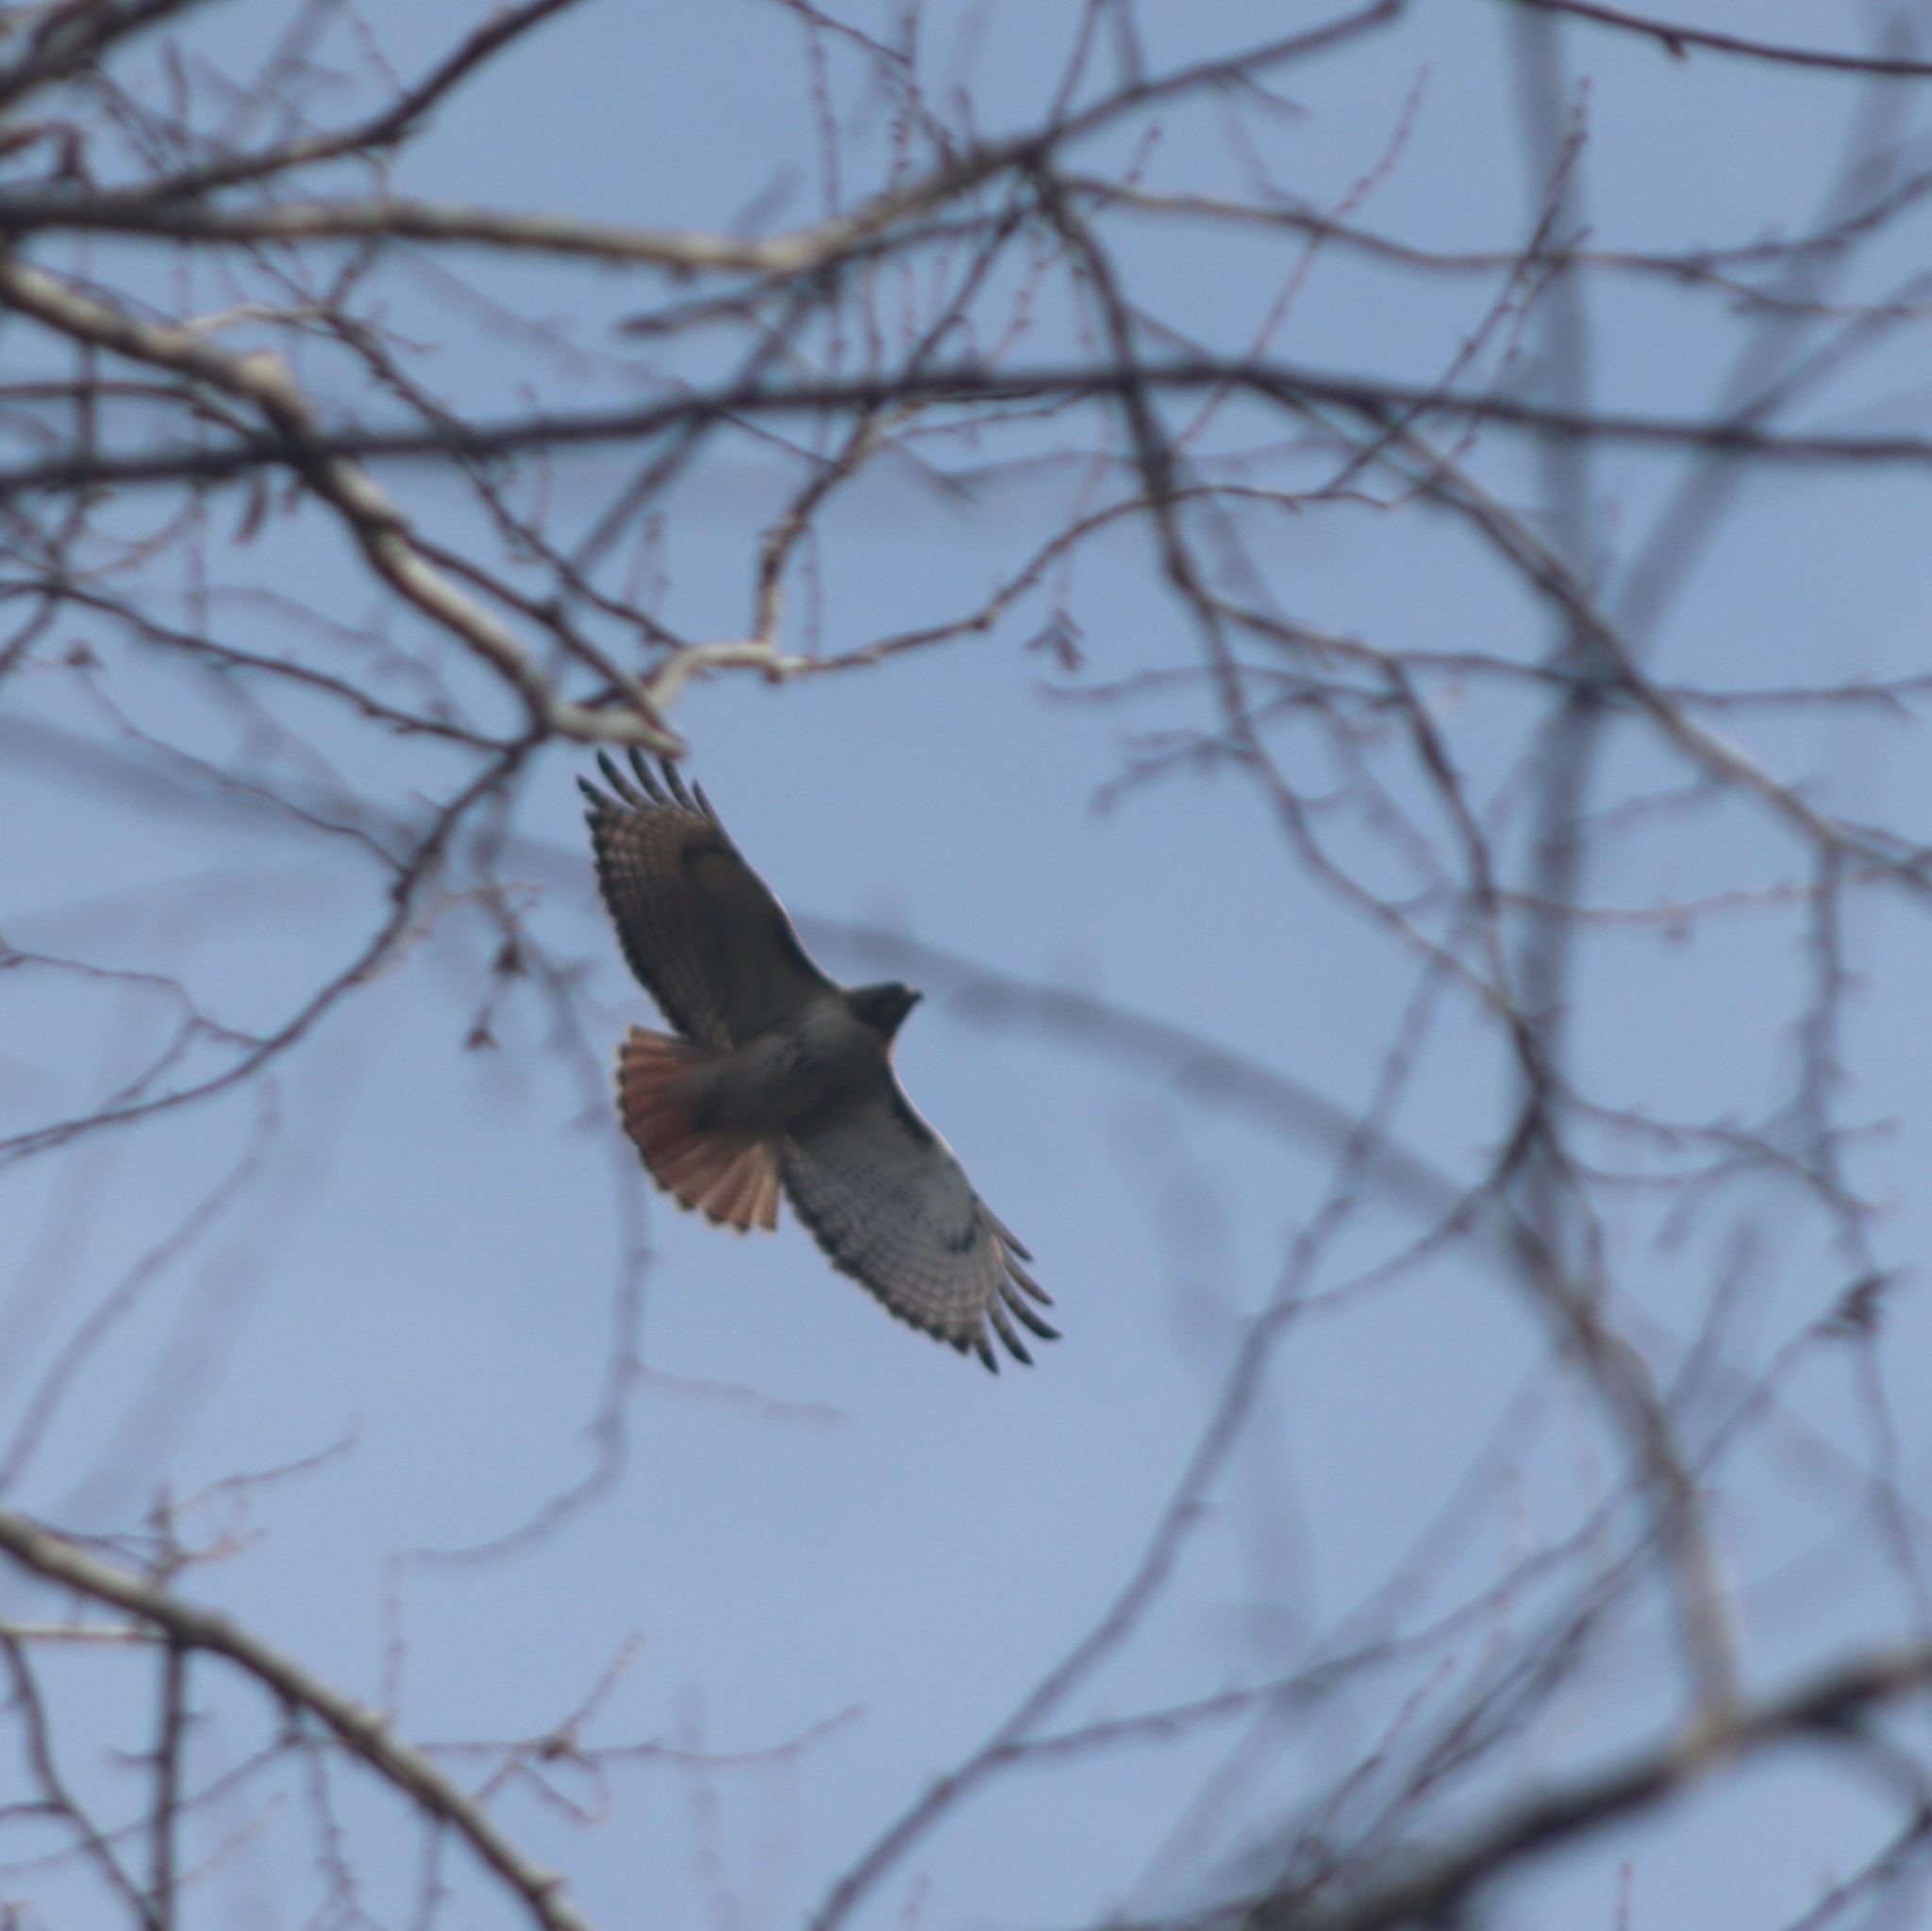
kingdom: Animalia
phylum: Chordata
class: Aves
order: Accipitriformes
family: Accipitridae
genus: Buteo
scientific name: Buteo jamaicensis
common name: Red-tailed hawk
